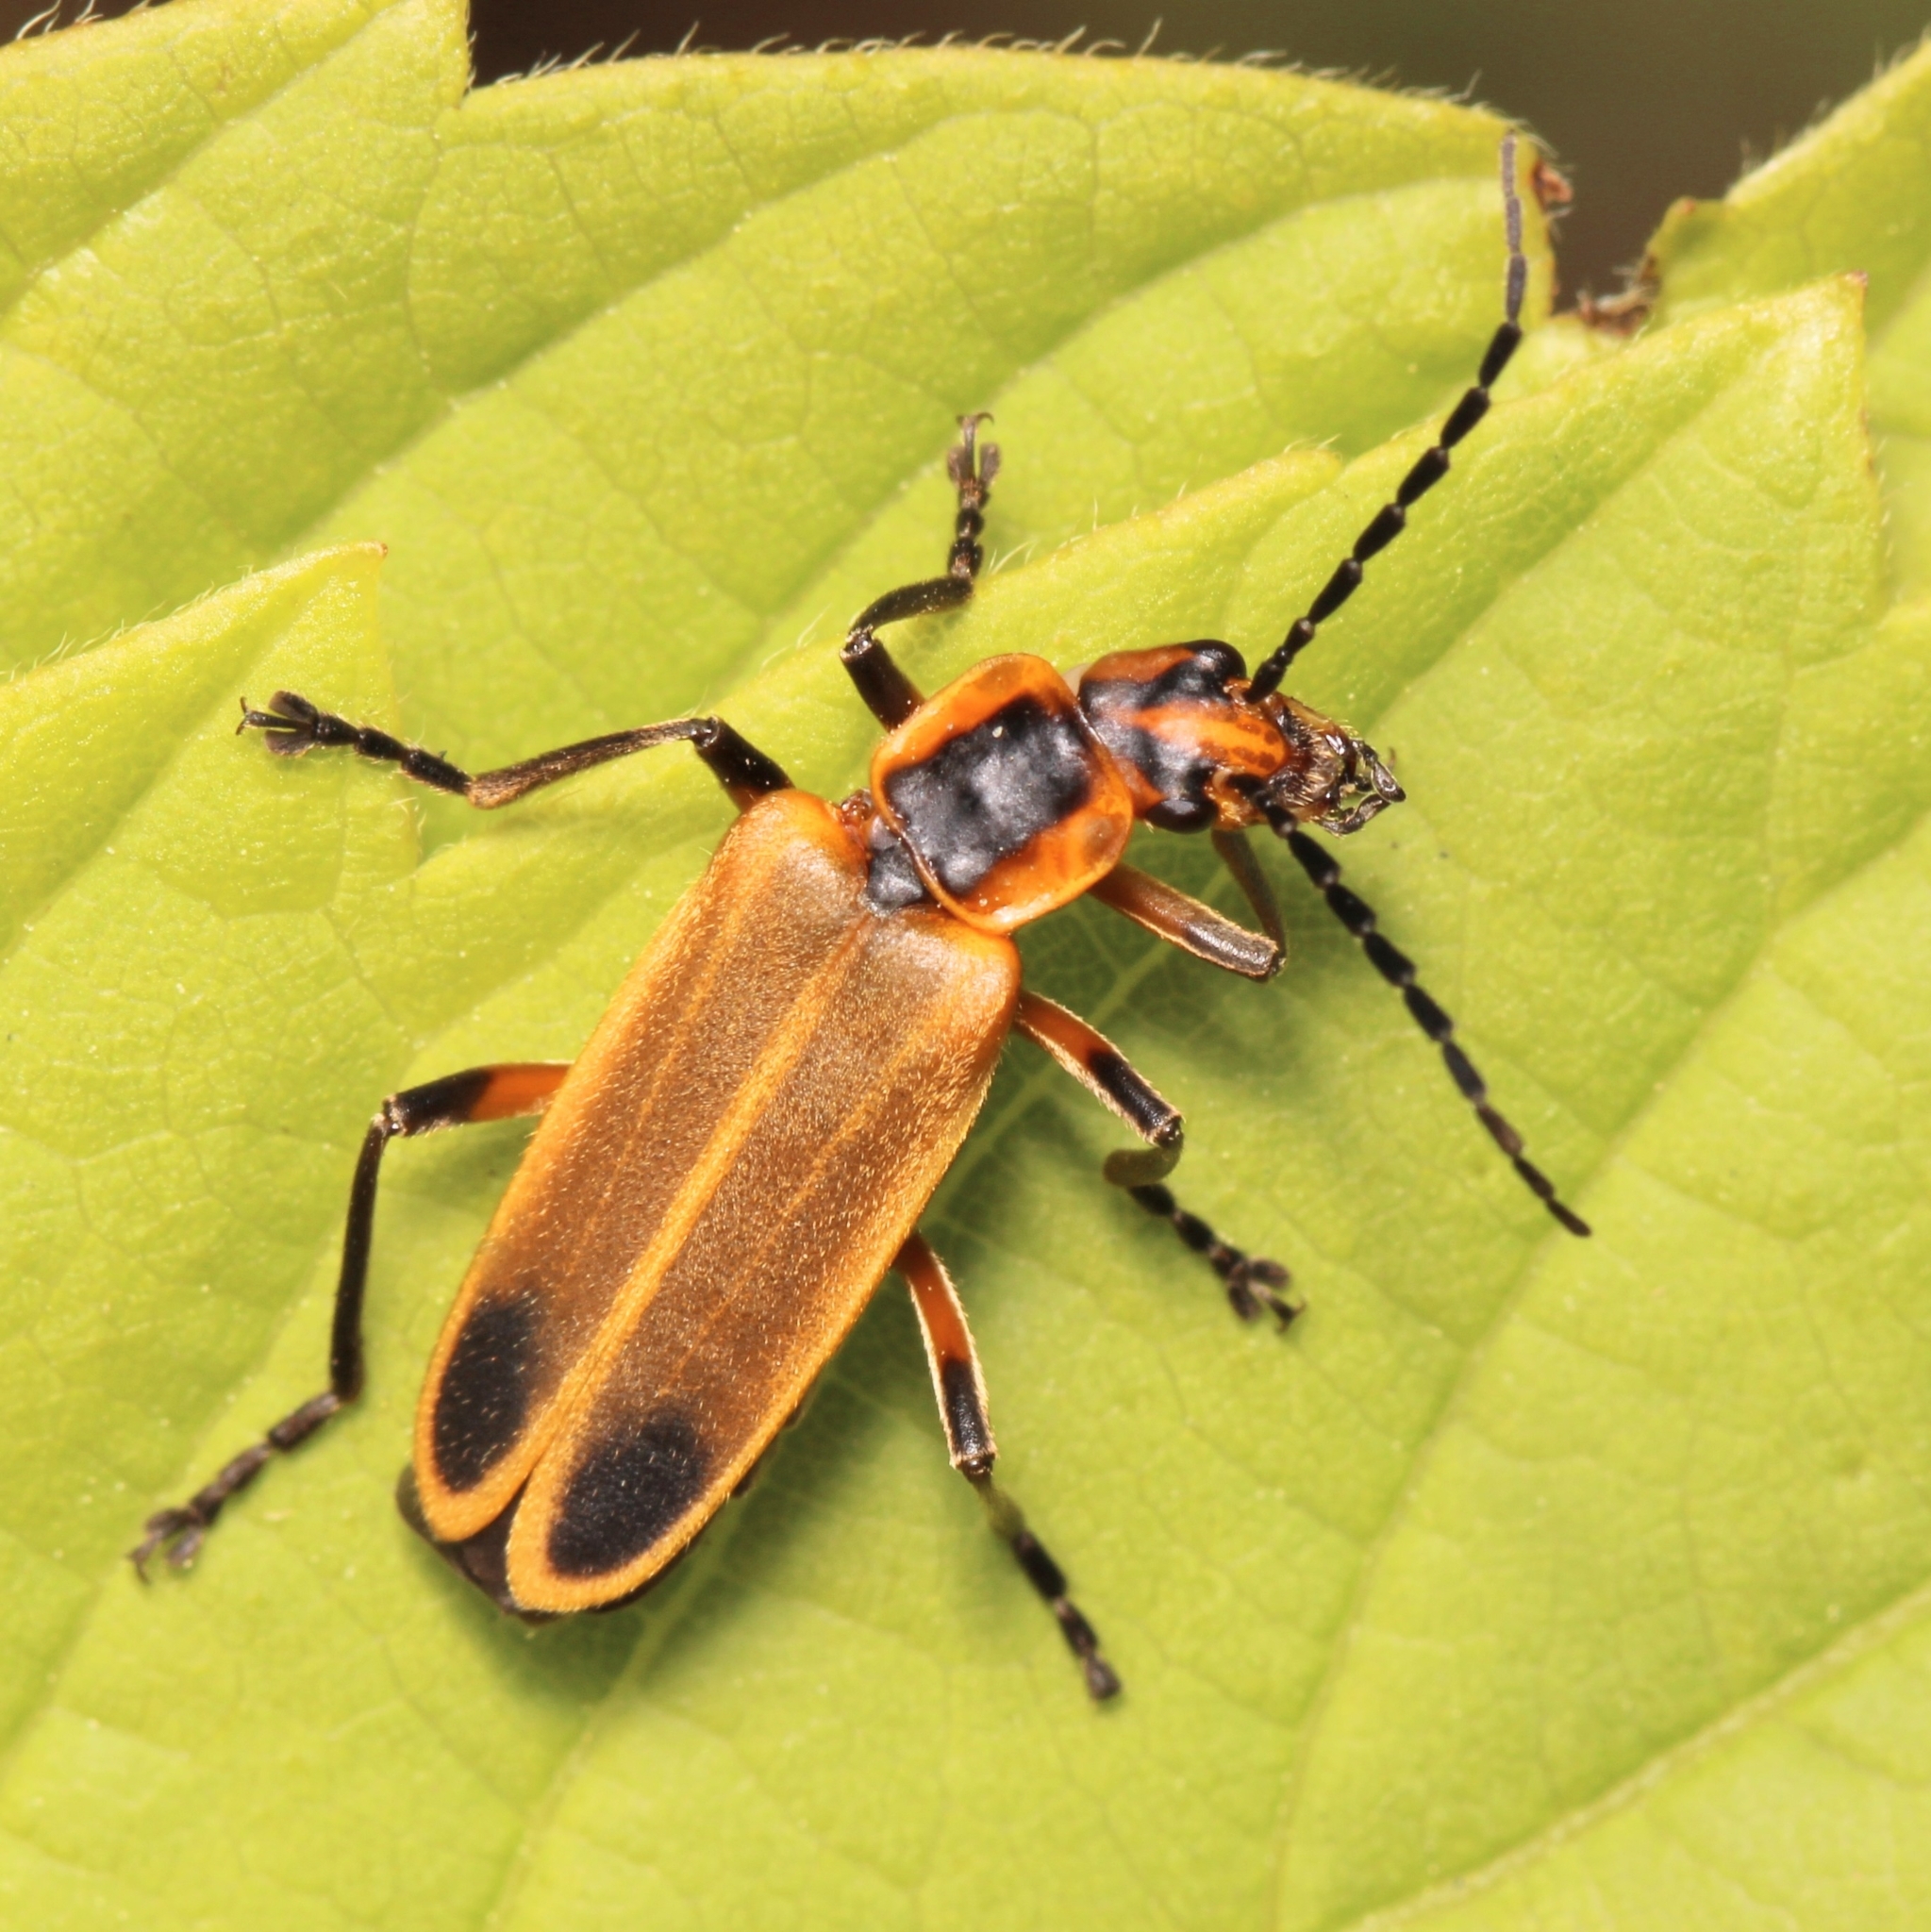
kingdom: Animalia
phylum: Arthropoda
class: Insecta
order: Coleoptera
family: Cantharidae
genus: Chauliognathus
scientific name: Chauliognathus marginatus
